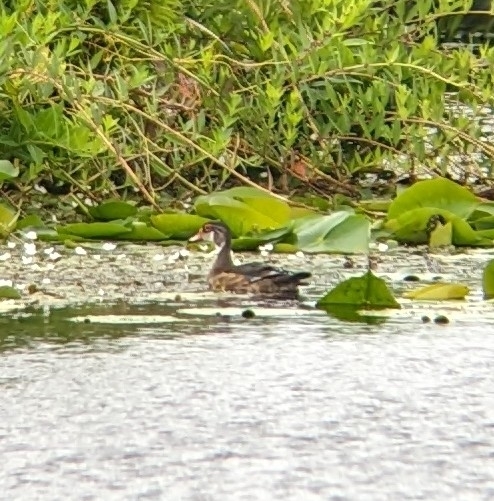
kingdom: Animalia
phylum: Chordata
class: Aves
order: Anseriformes
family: Anatidae
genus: Aix
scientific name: Aix sponsa
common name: Wood duck
